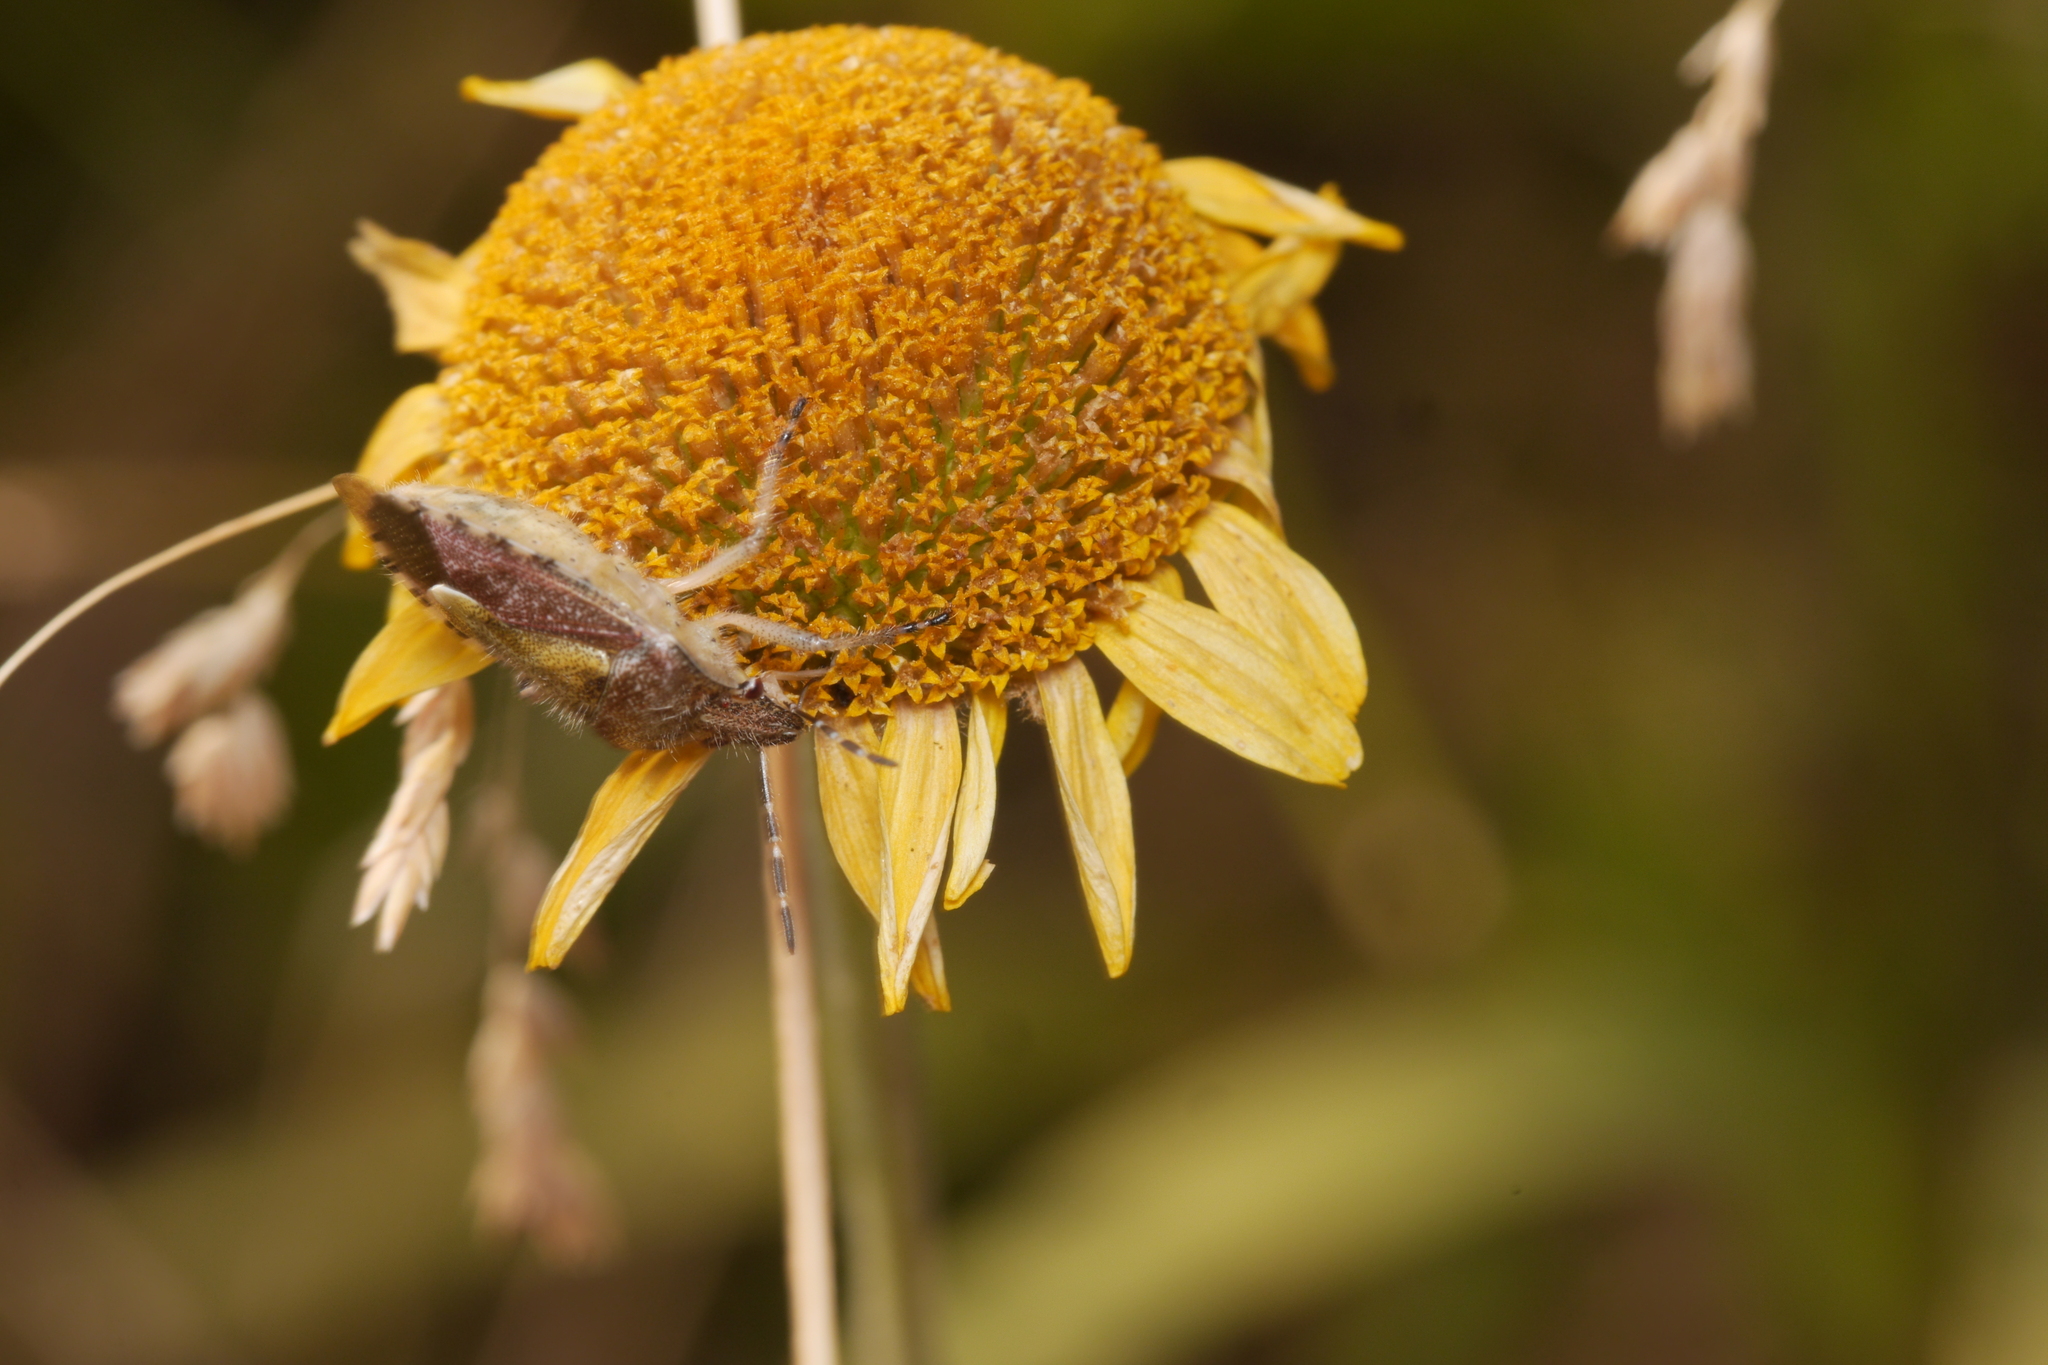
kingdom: Animalia
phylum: Arthropoda
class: Insecta
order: Hemiptera
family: Pentatomidae
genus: Dolycoris
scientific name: Dolycoris baccarum
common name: Sloe bug
